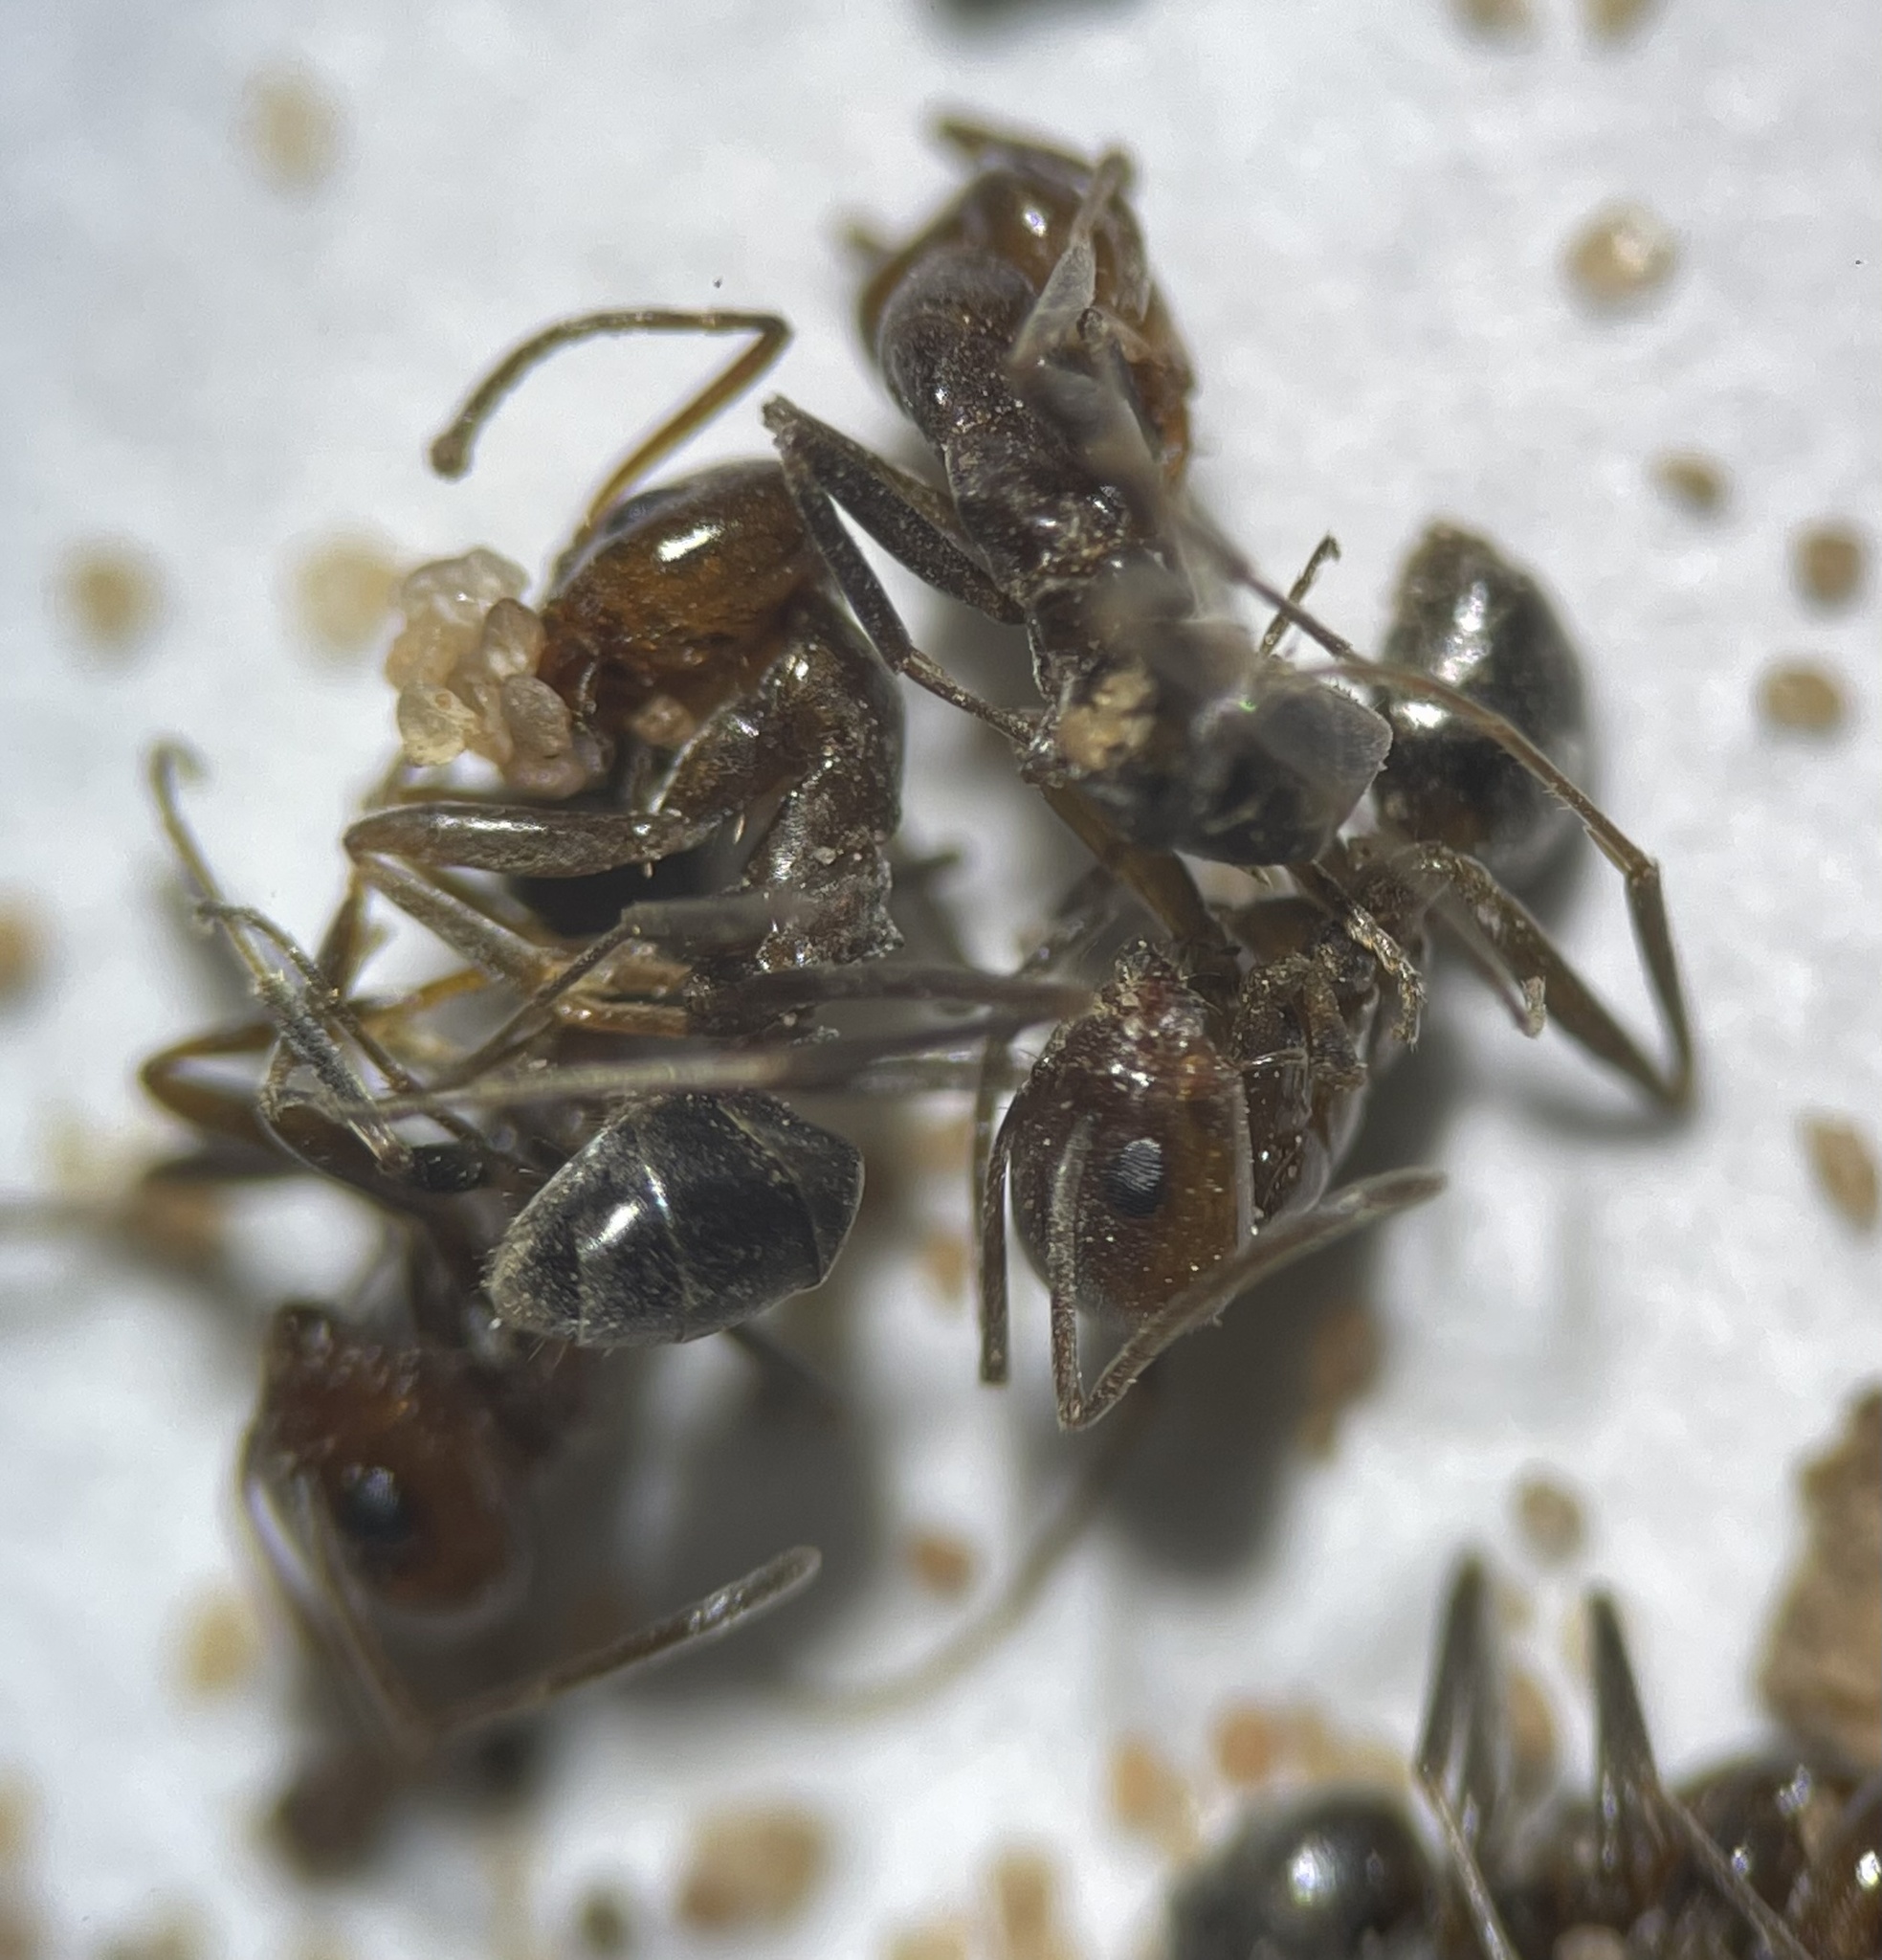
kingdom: Animalia
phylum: Arthropoda
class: Insecta
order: Hymenoptera
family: Formicidae
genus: Dorymyrmex
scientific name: Dorymyrmex
